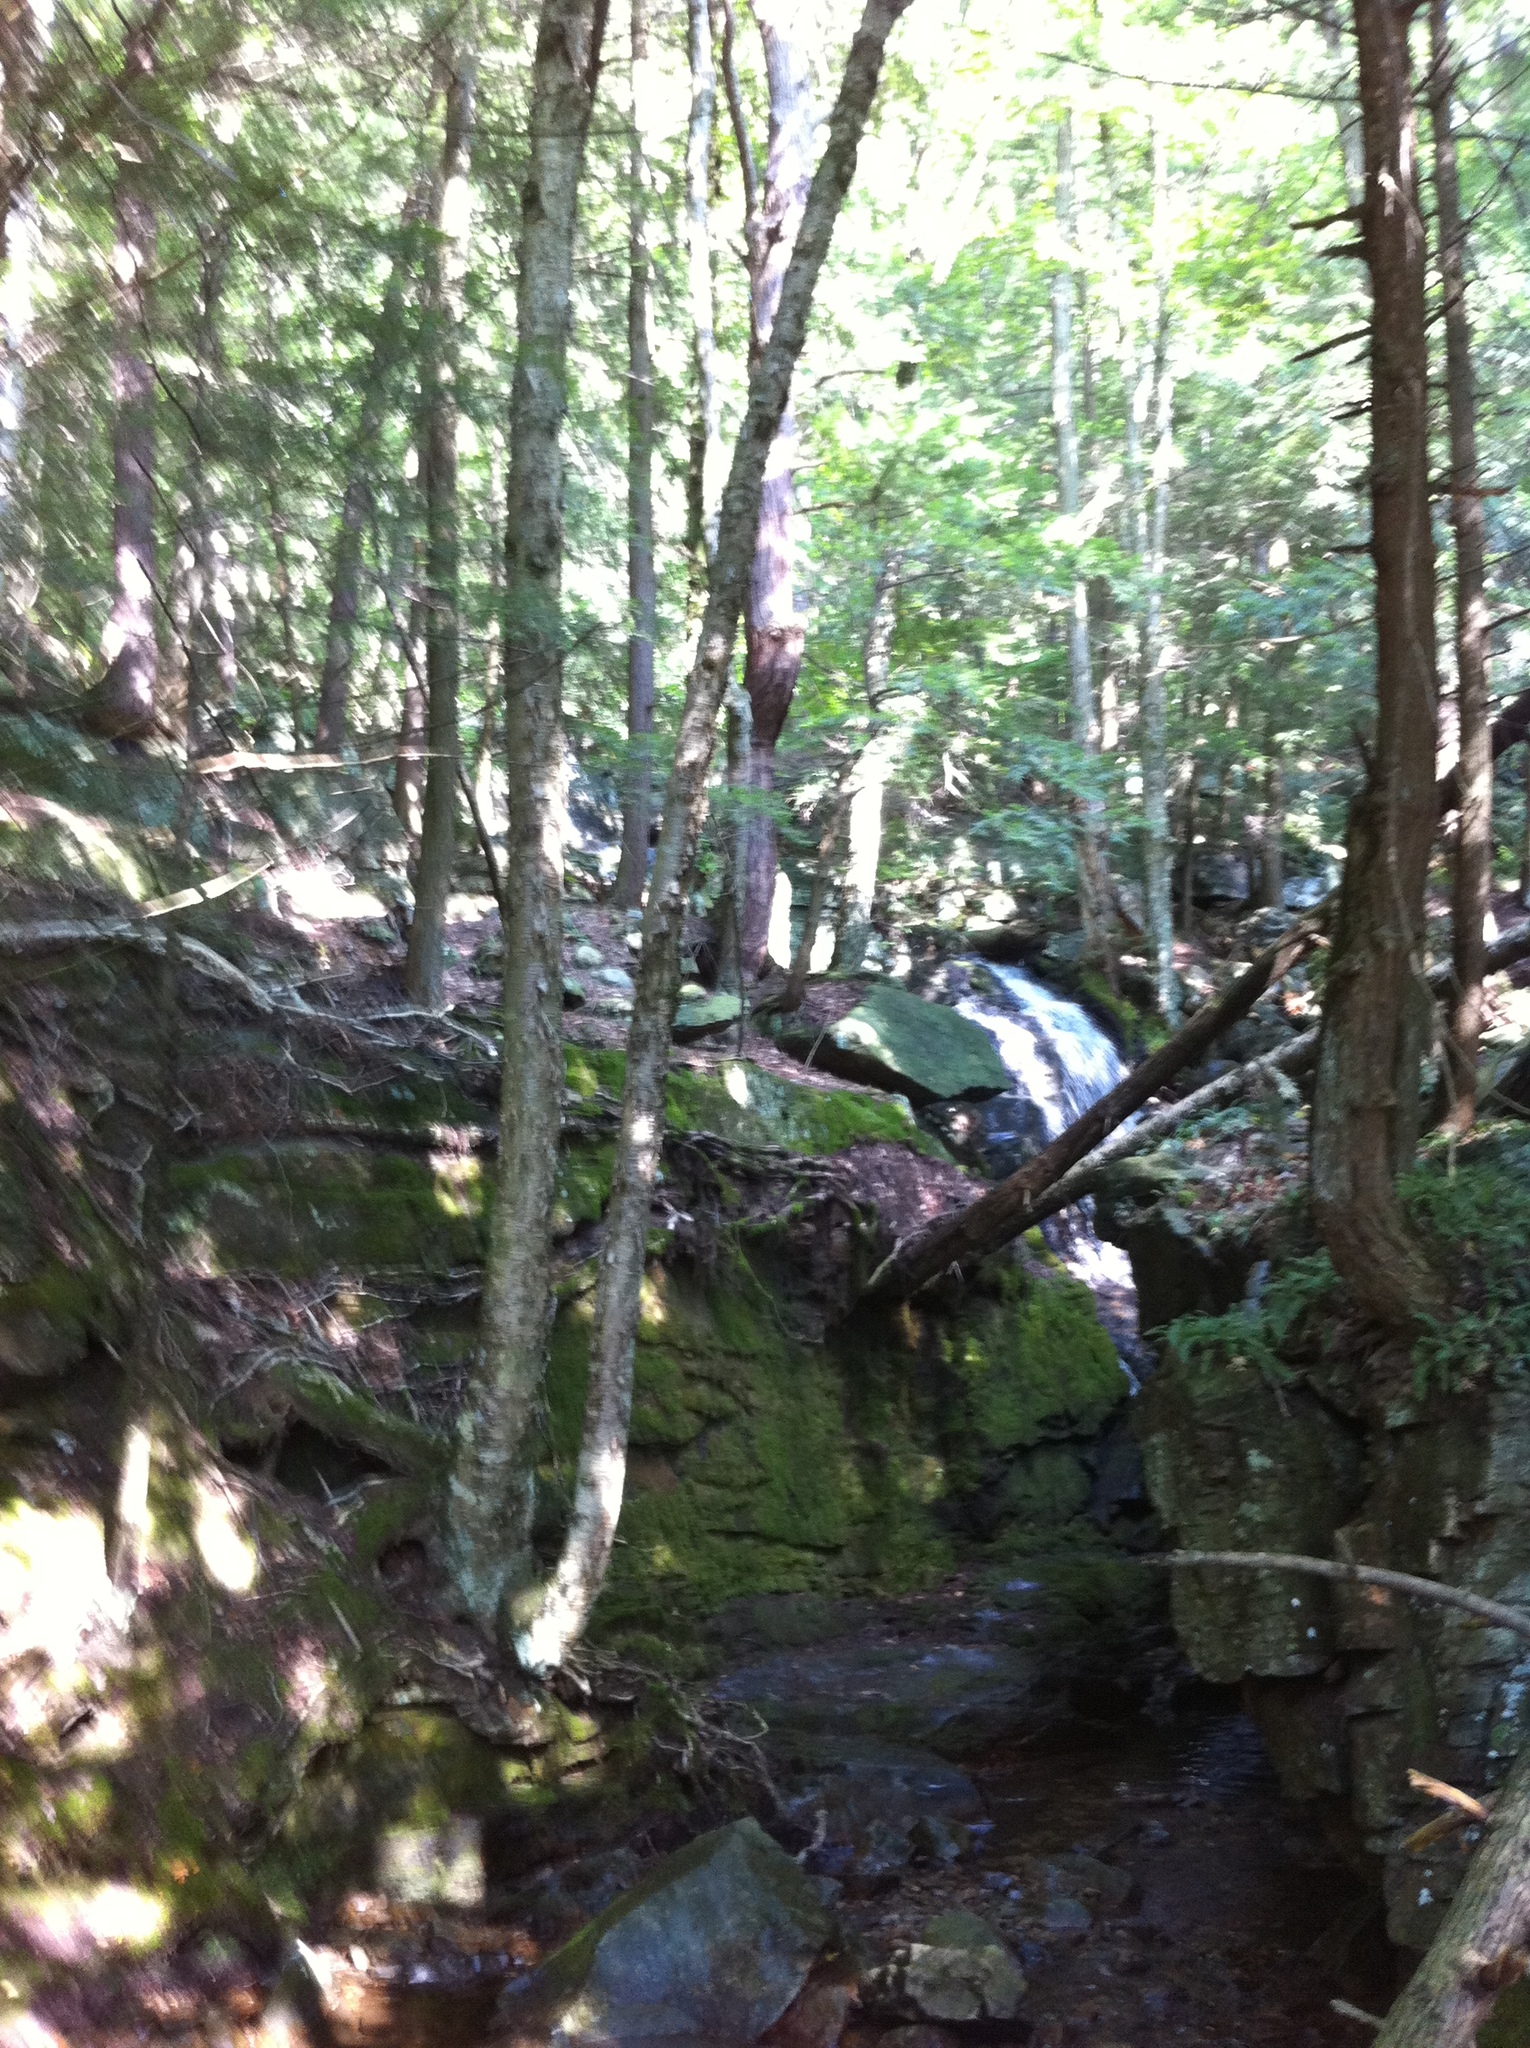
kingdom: Plantae
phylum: Tracheophyta
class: Magnoliopsida
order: Fagales
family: Betulaceae
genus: Betula
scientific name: Betula alleghaniensis
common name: Yellow birch
